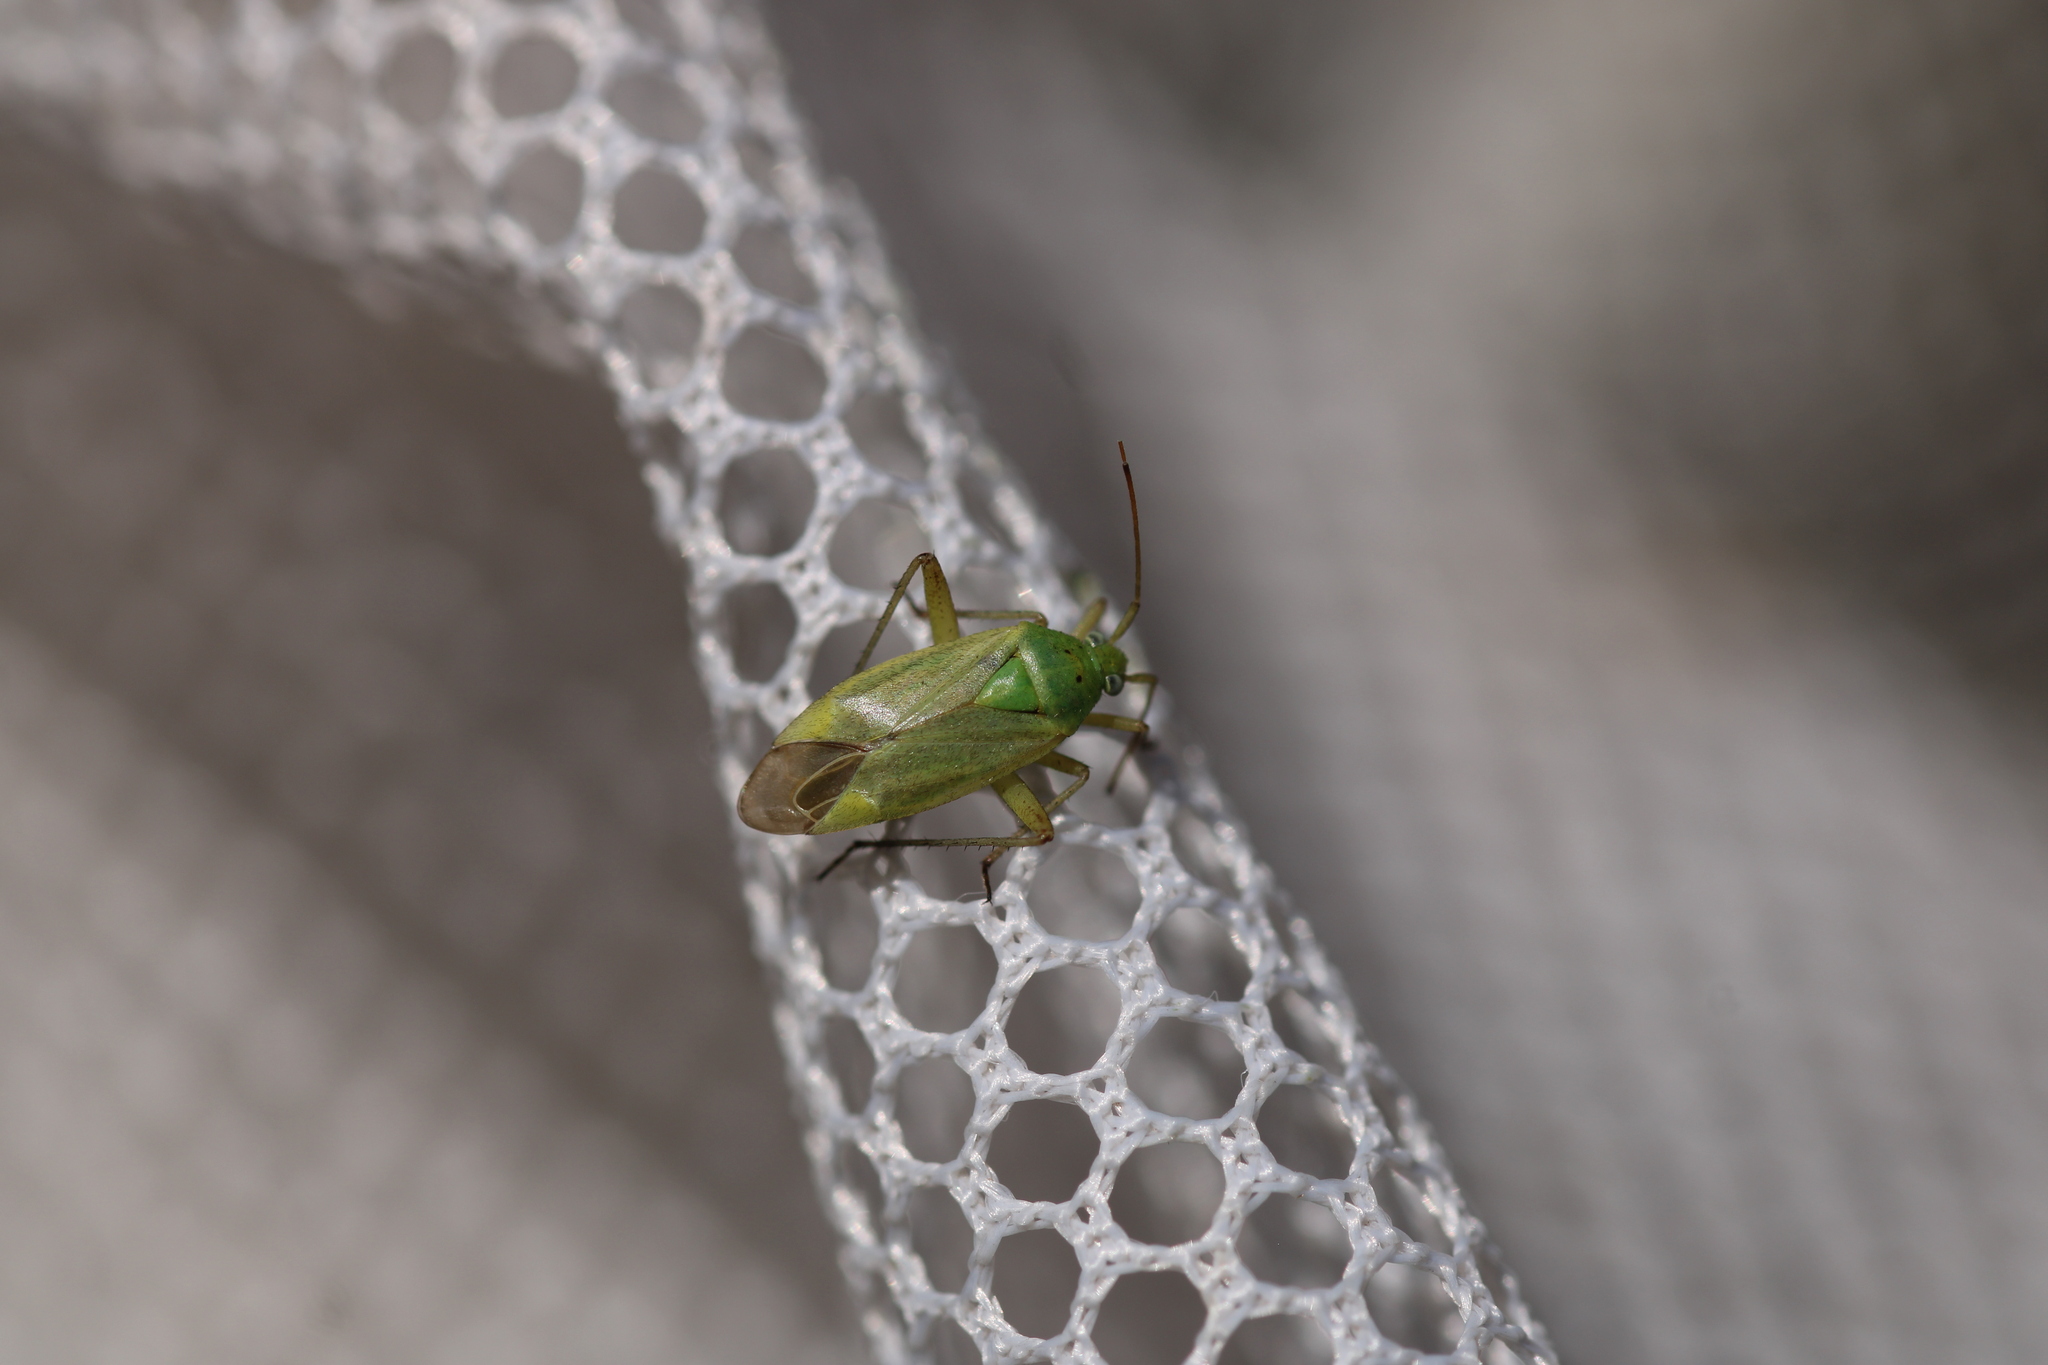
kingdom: Animalia
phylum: Arthropoda
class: Insecta
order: Hemiptera
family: Miridae
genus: Closterotomus
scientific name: Closterotomus norvegicus
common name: Plant bug
